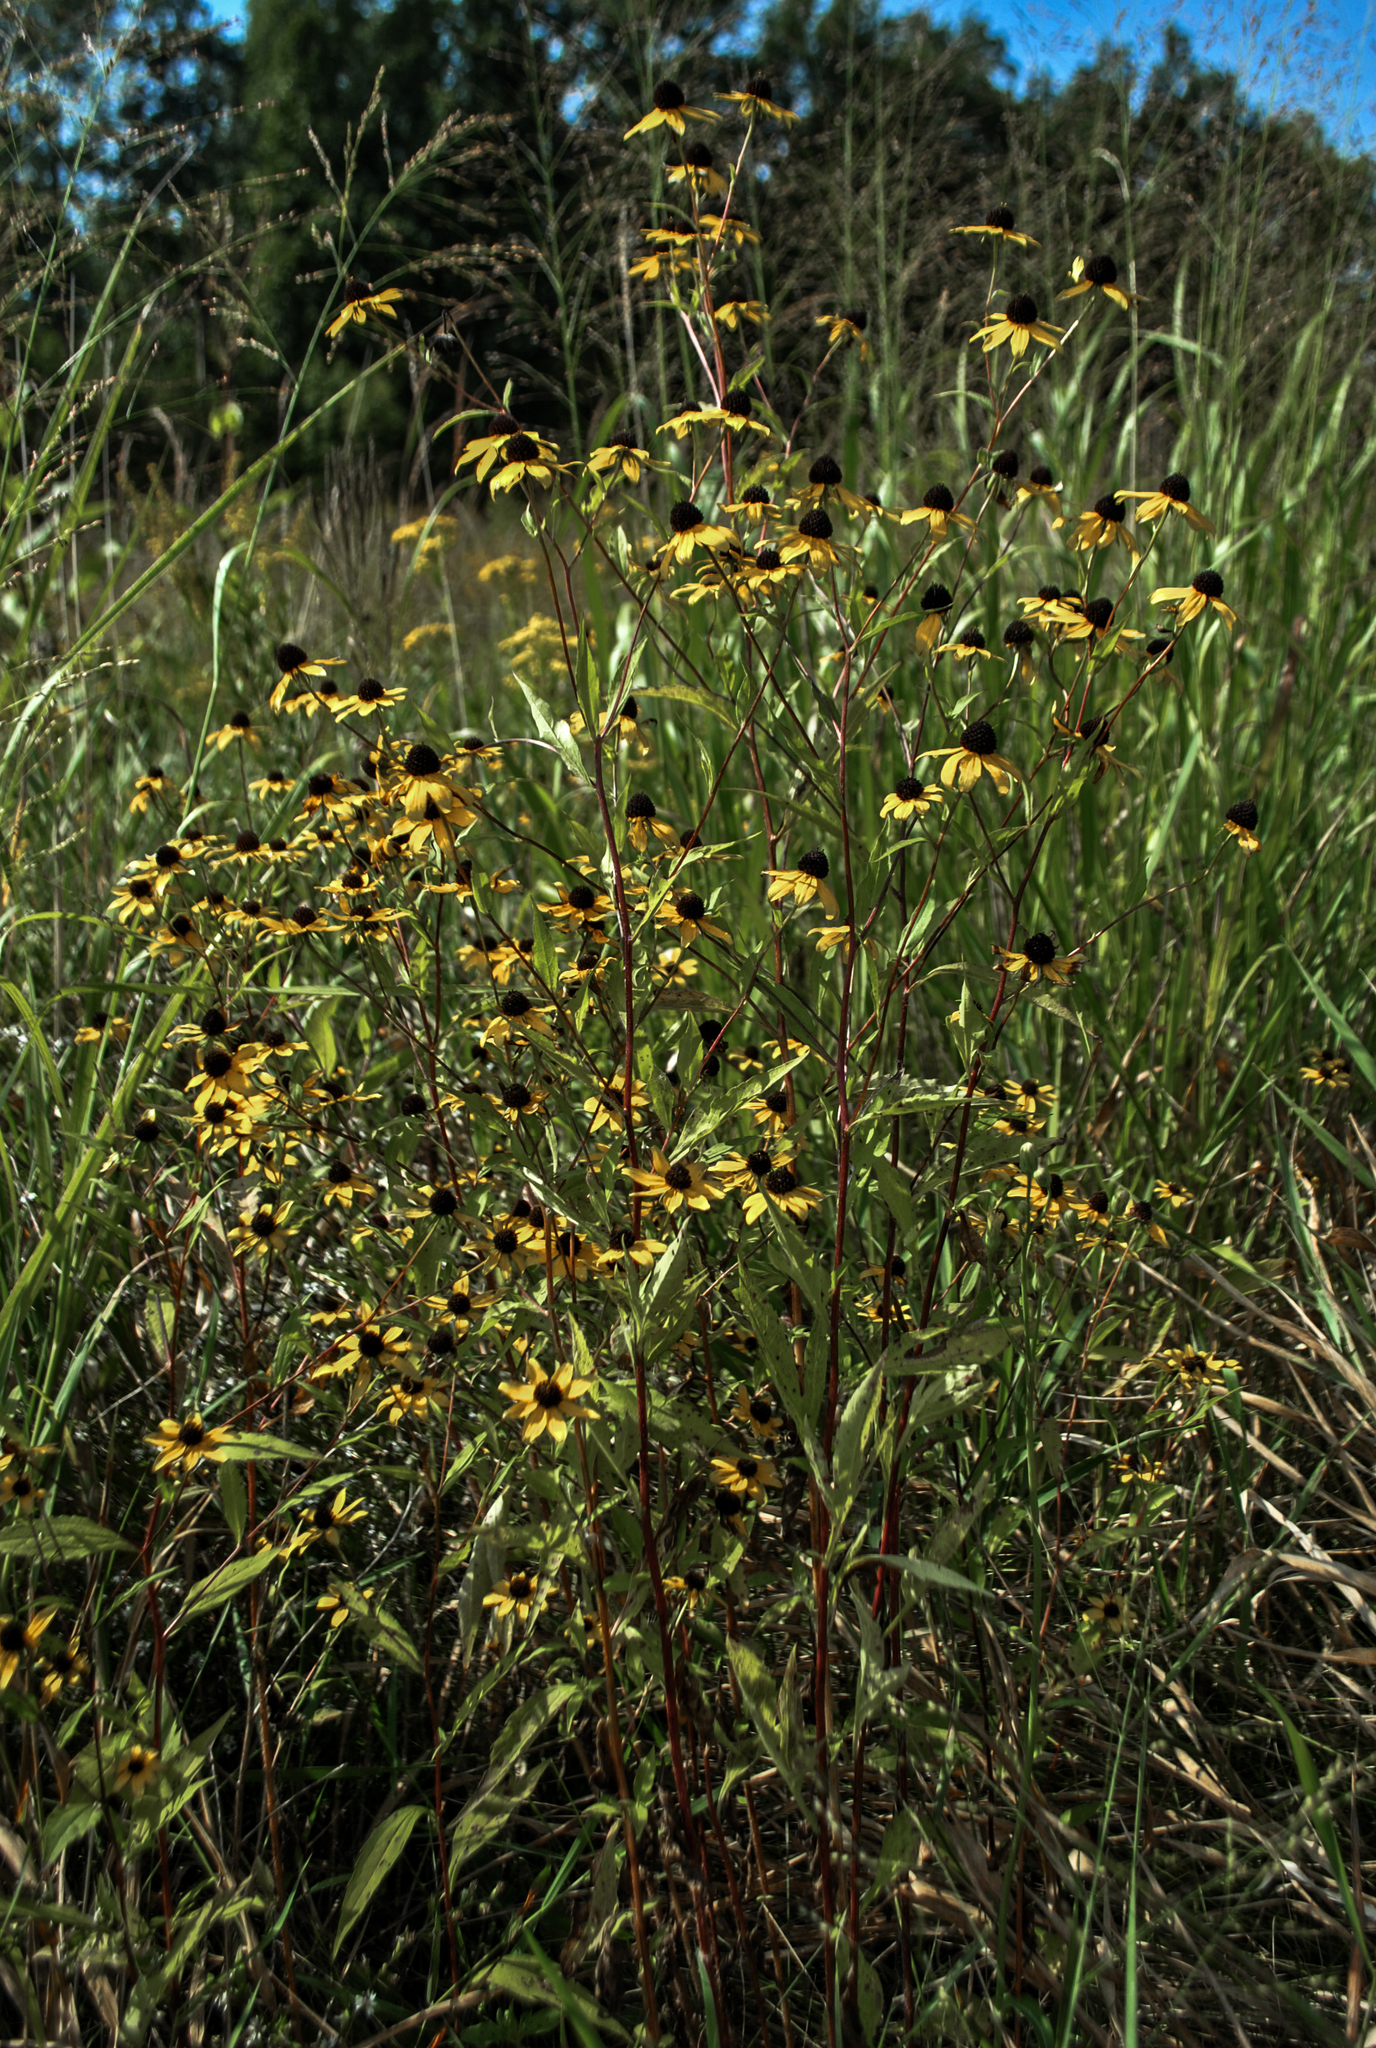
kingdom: Plantae
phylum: Tracheophyta
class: Magnoliopsida
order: Asterales
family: Asteraceae
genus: Rudbeckia
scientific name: Rudbeckia triloba
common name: Thin-leaved coneflower
